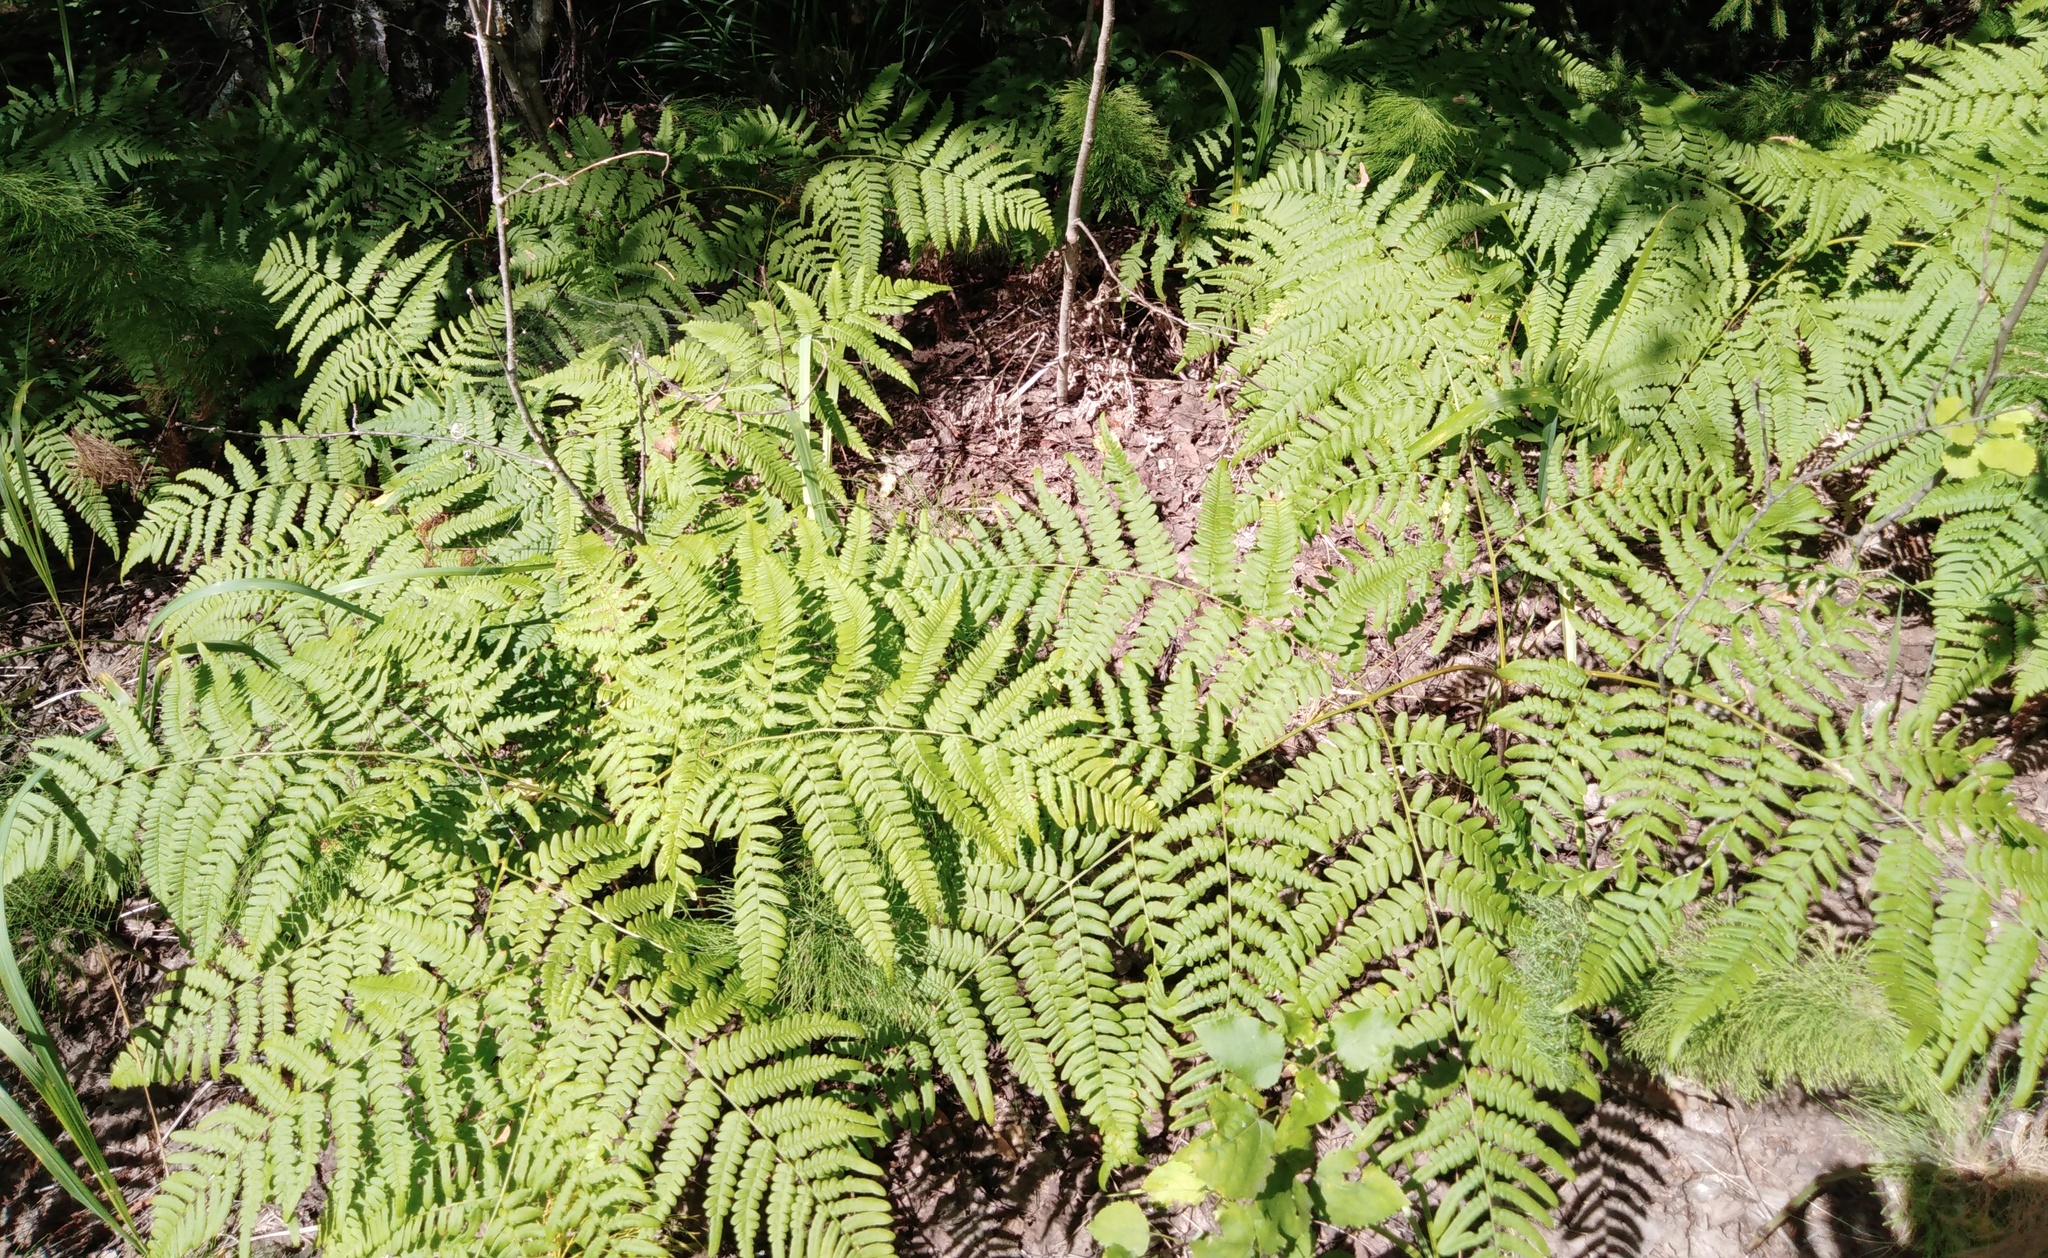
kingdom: Plantae
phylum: Tracheophyta
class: Polypodiopsida
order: Polypodiales
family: Dennstaedtiaceae
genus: Pteridium
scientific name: Pteridium aquilinum
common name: Bracken
